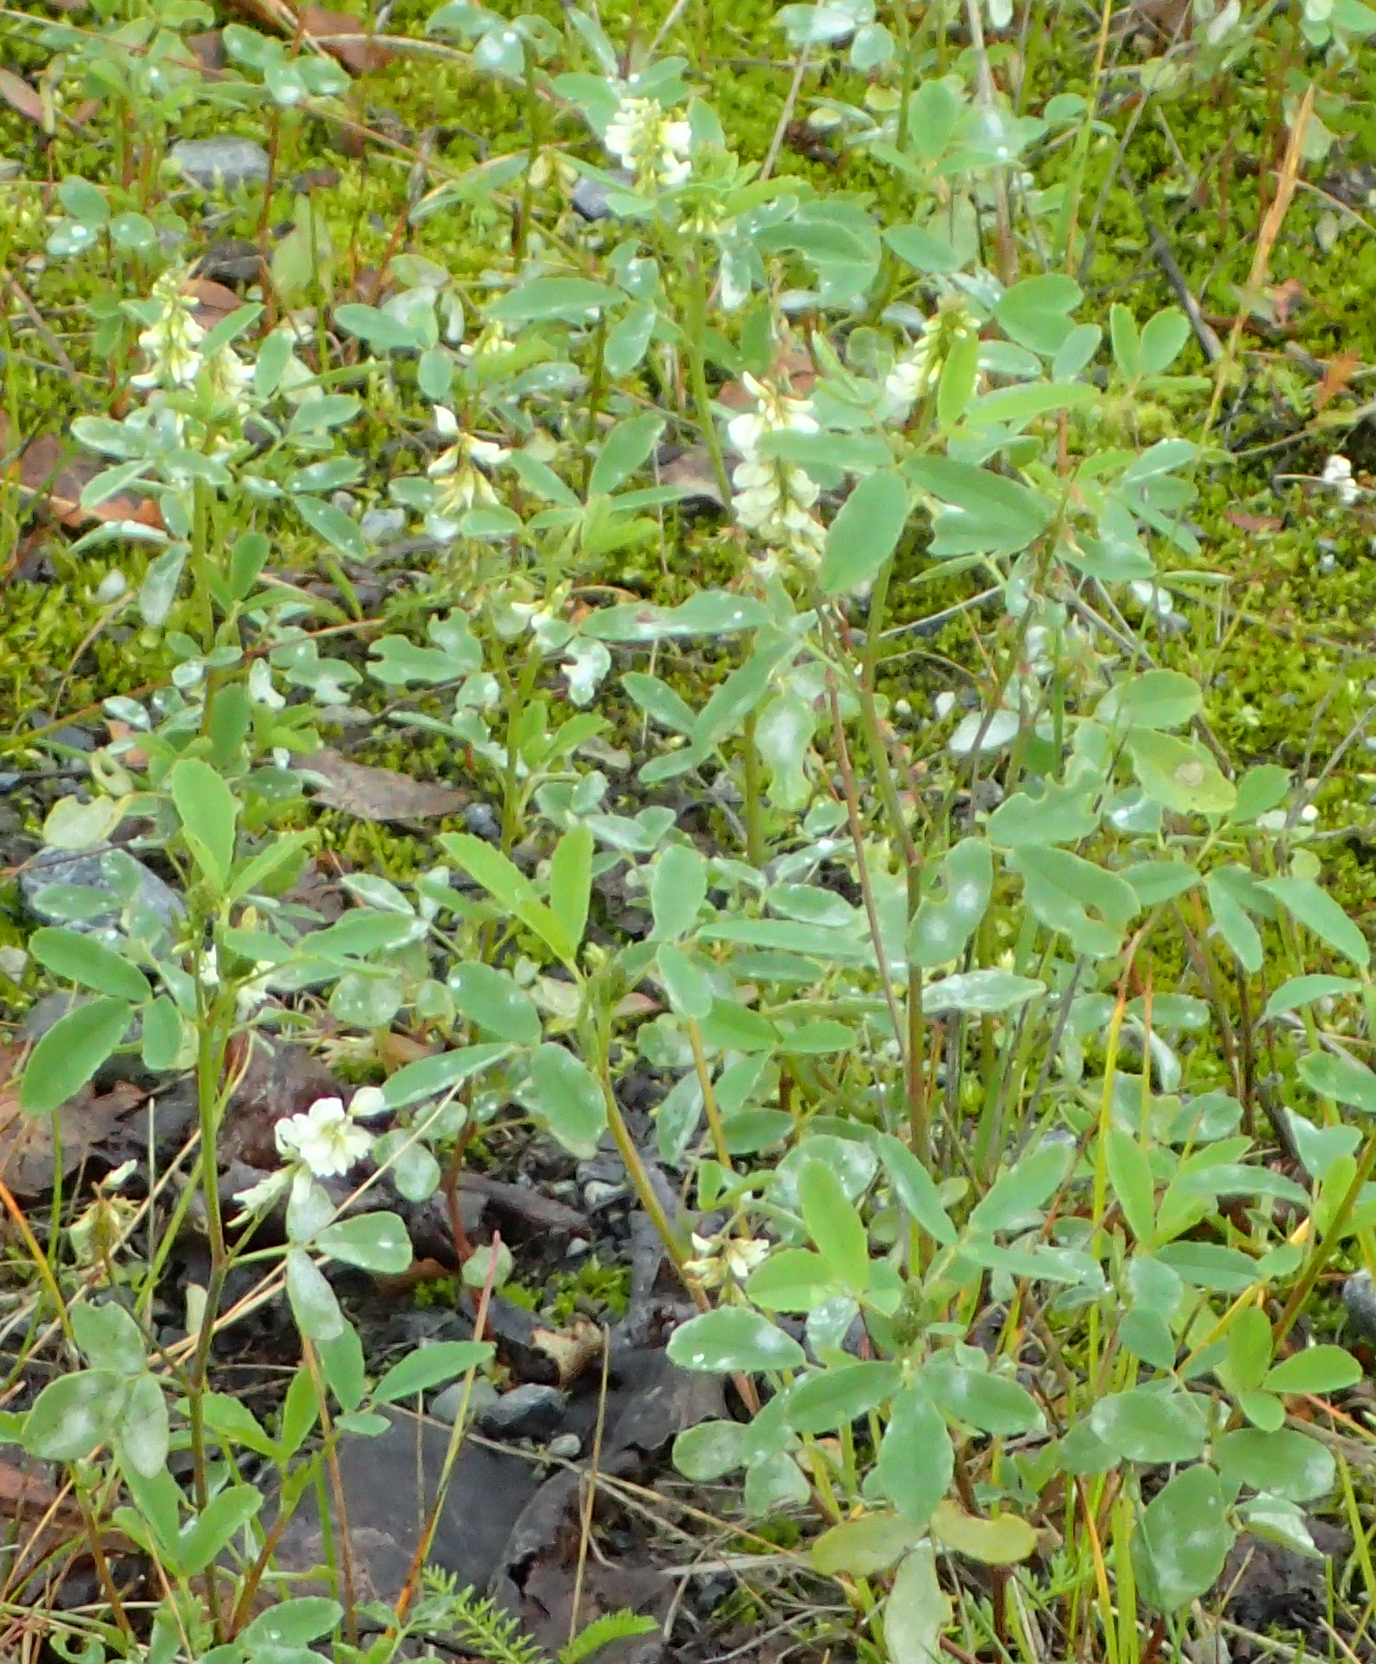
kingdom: Plantae
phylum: Tracheophyta
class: Magnoliopsida
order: Fabales
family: Fabaceae
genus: Melilotus
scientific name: Melilotus albus
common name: White melilot
